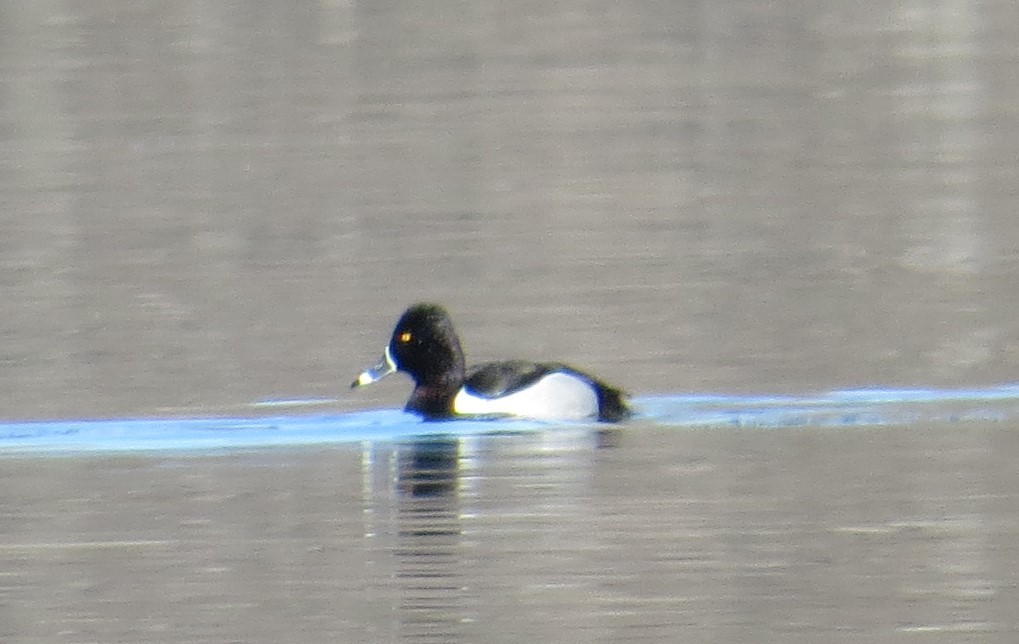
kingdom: Animalia
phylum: Chordata
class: Aves
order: Anseriformes
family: Anatidae
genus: Aythya
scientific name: Aythya collaris
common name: Ring-necked duck
